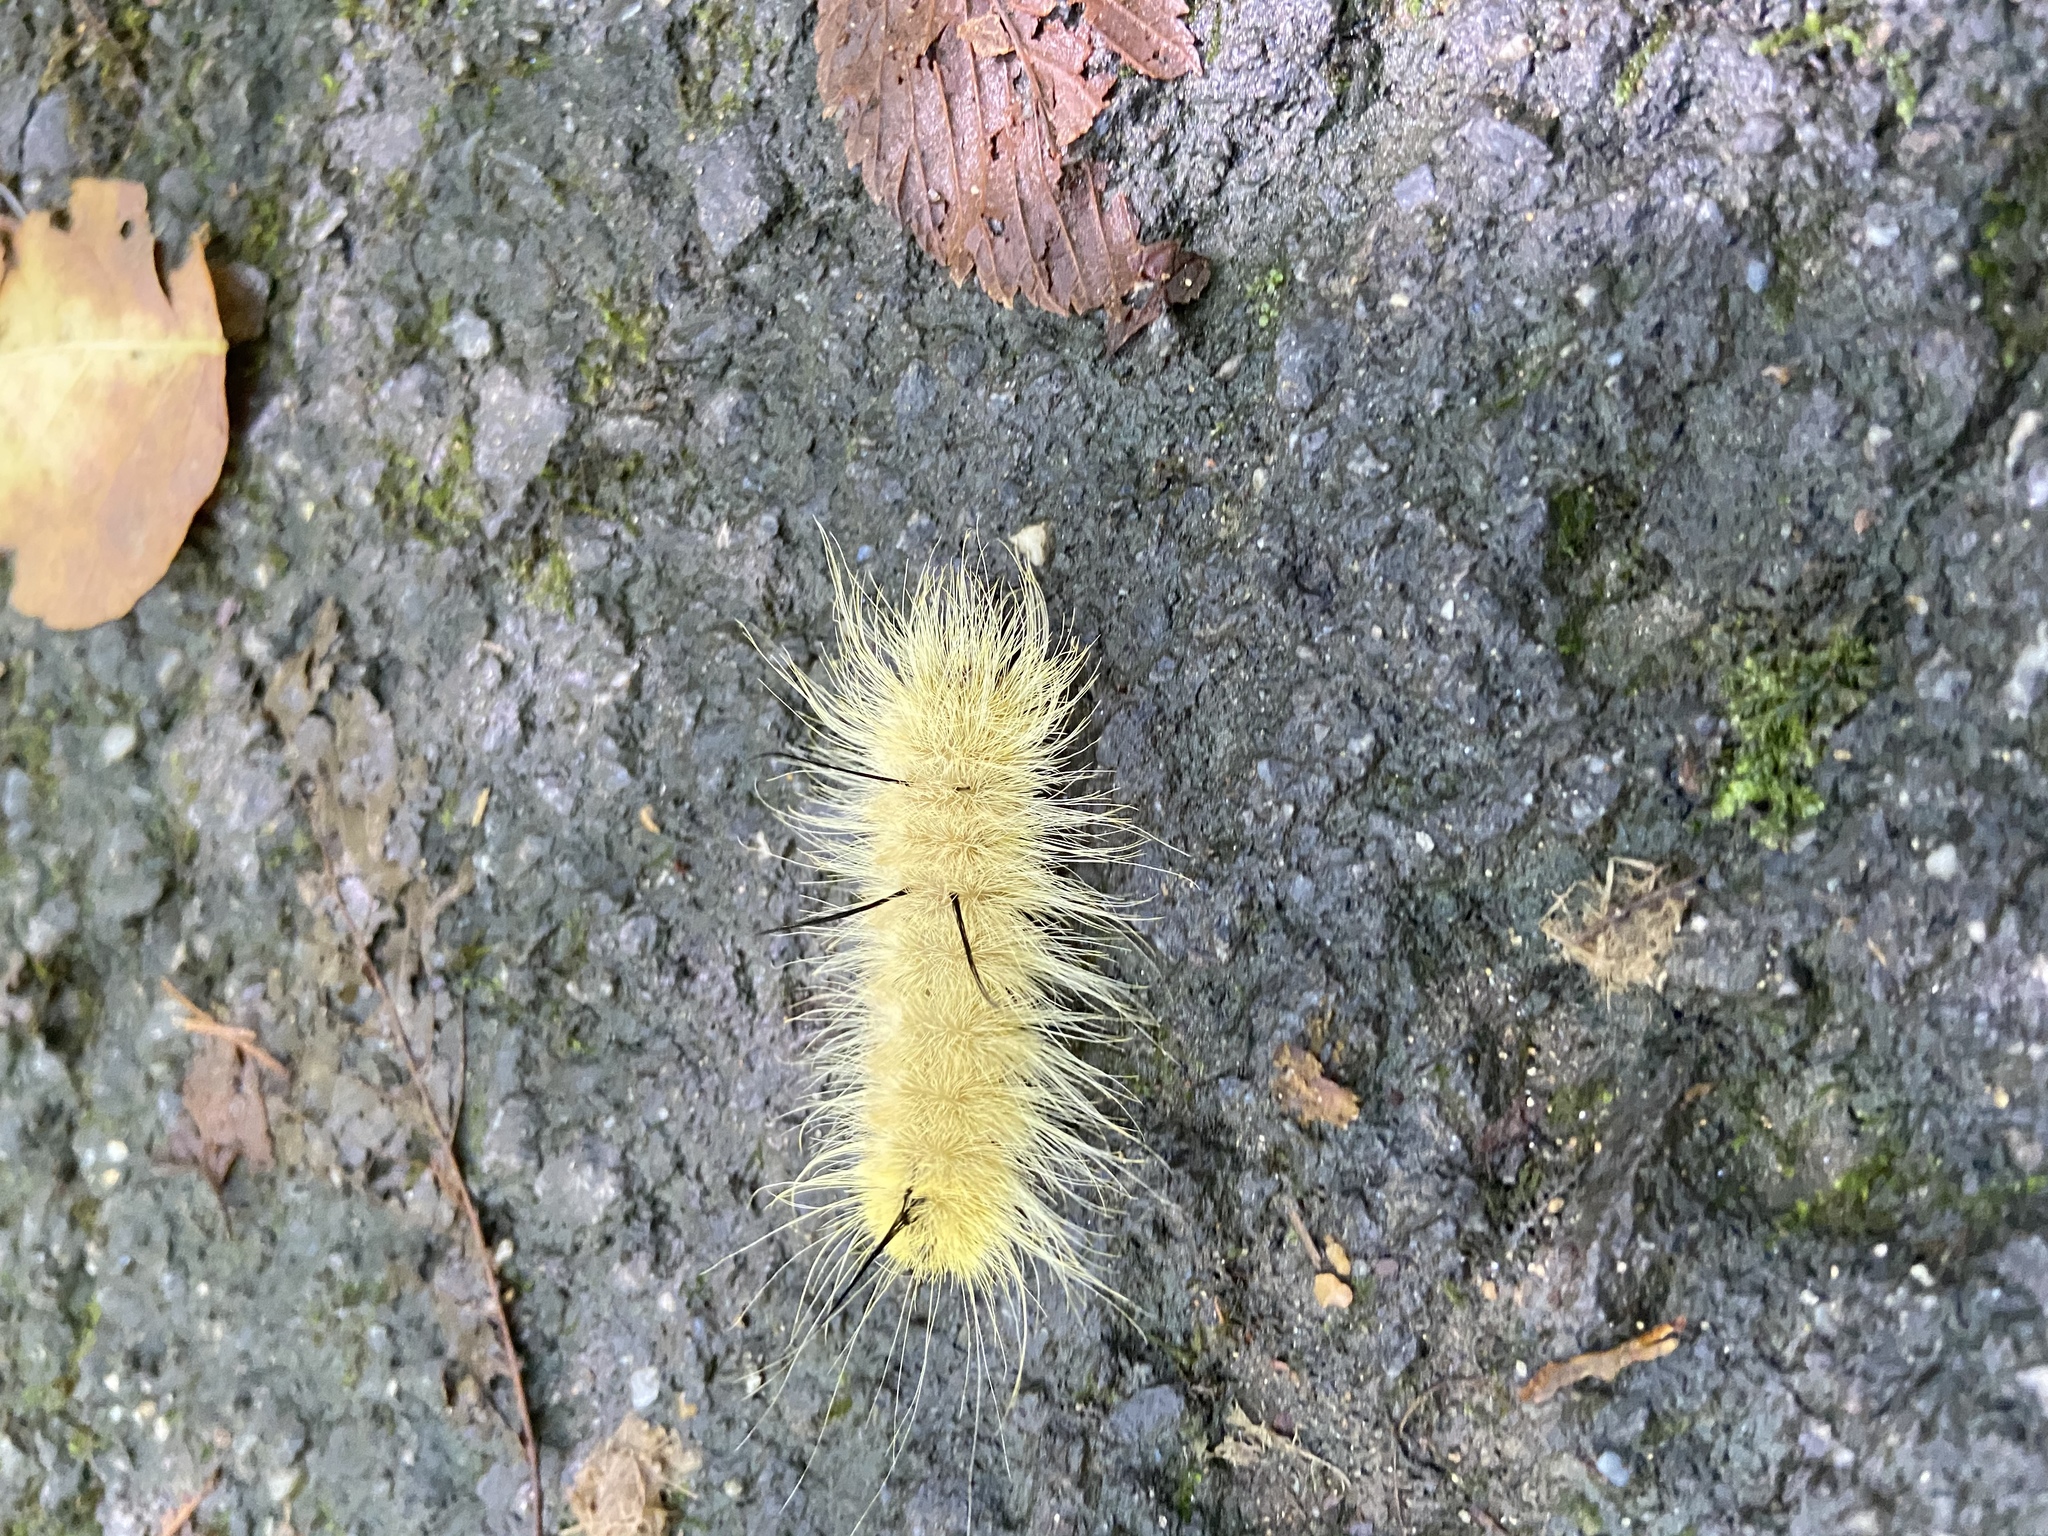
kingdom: Animalia
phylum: Arthropoda
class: Insecta
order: Lepidoptera
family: Noctuidae
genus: Acronicta
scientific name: Acronicta americana
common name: American dagger
